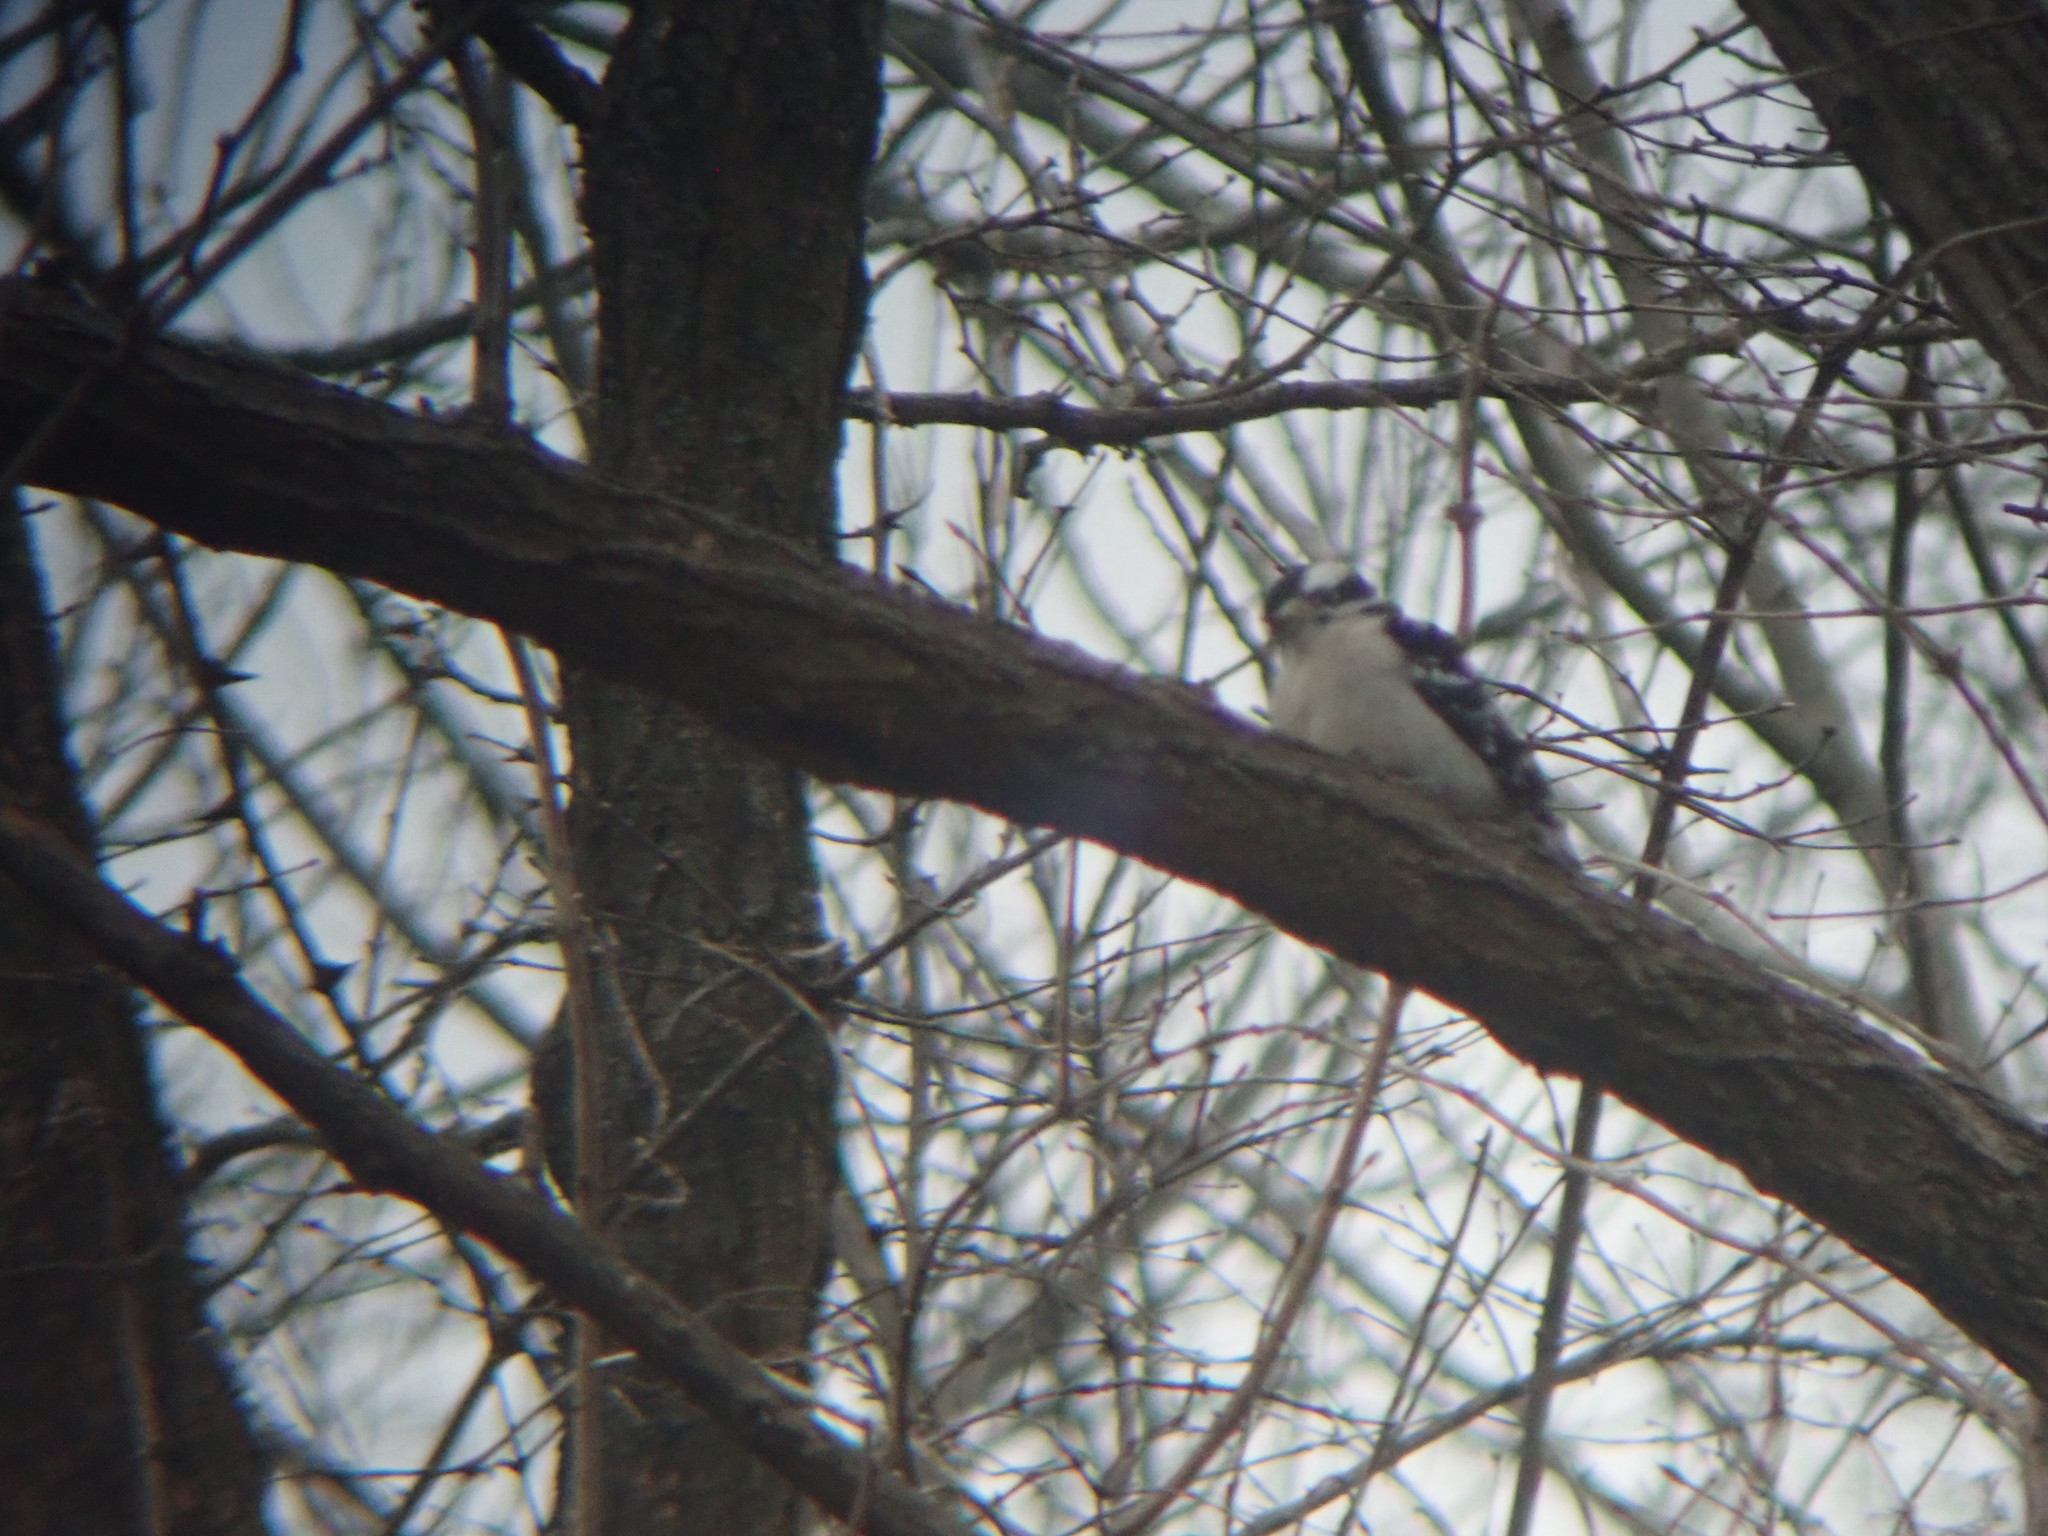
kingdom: Animalia
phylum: Chordata
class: Aves
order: Piciformes
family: Picidae
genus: Dryobates
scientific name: Dryobates pubescens
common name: Downy woodpecker
